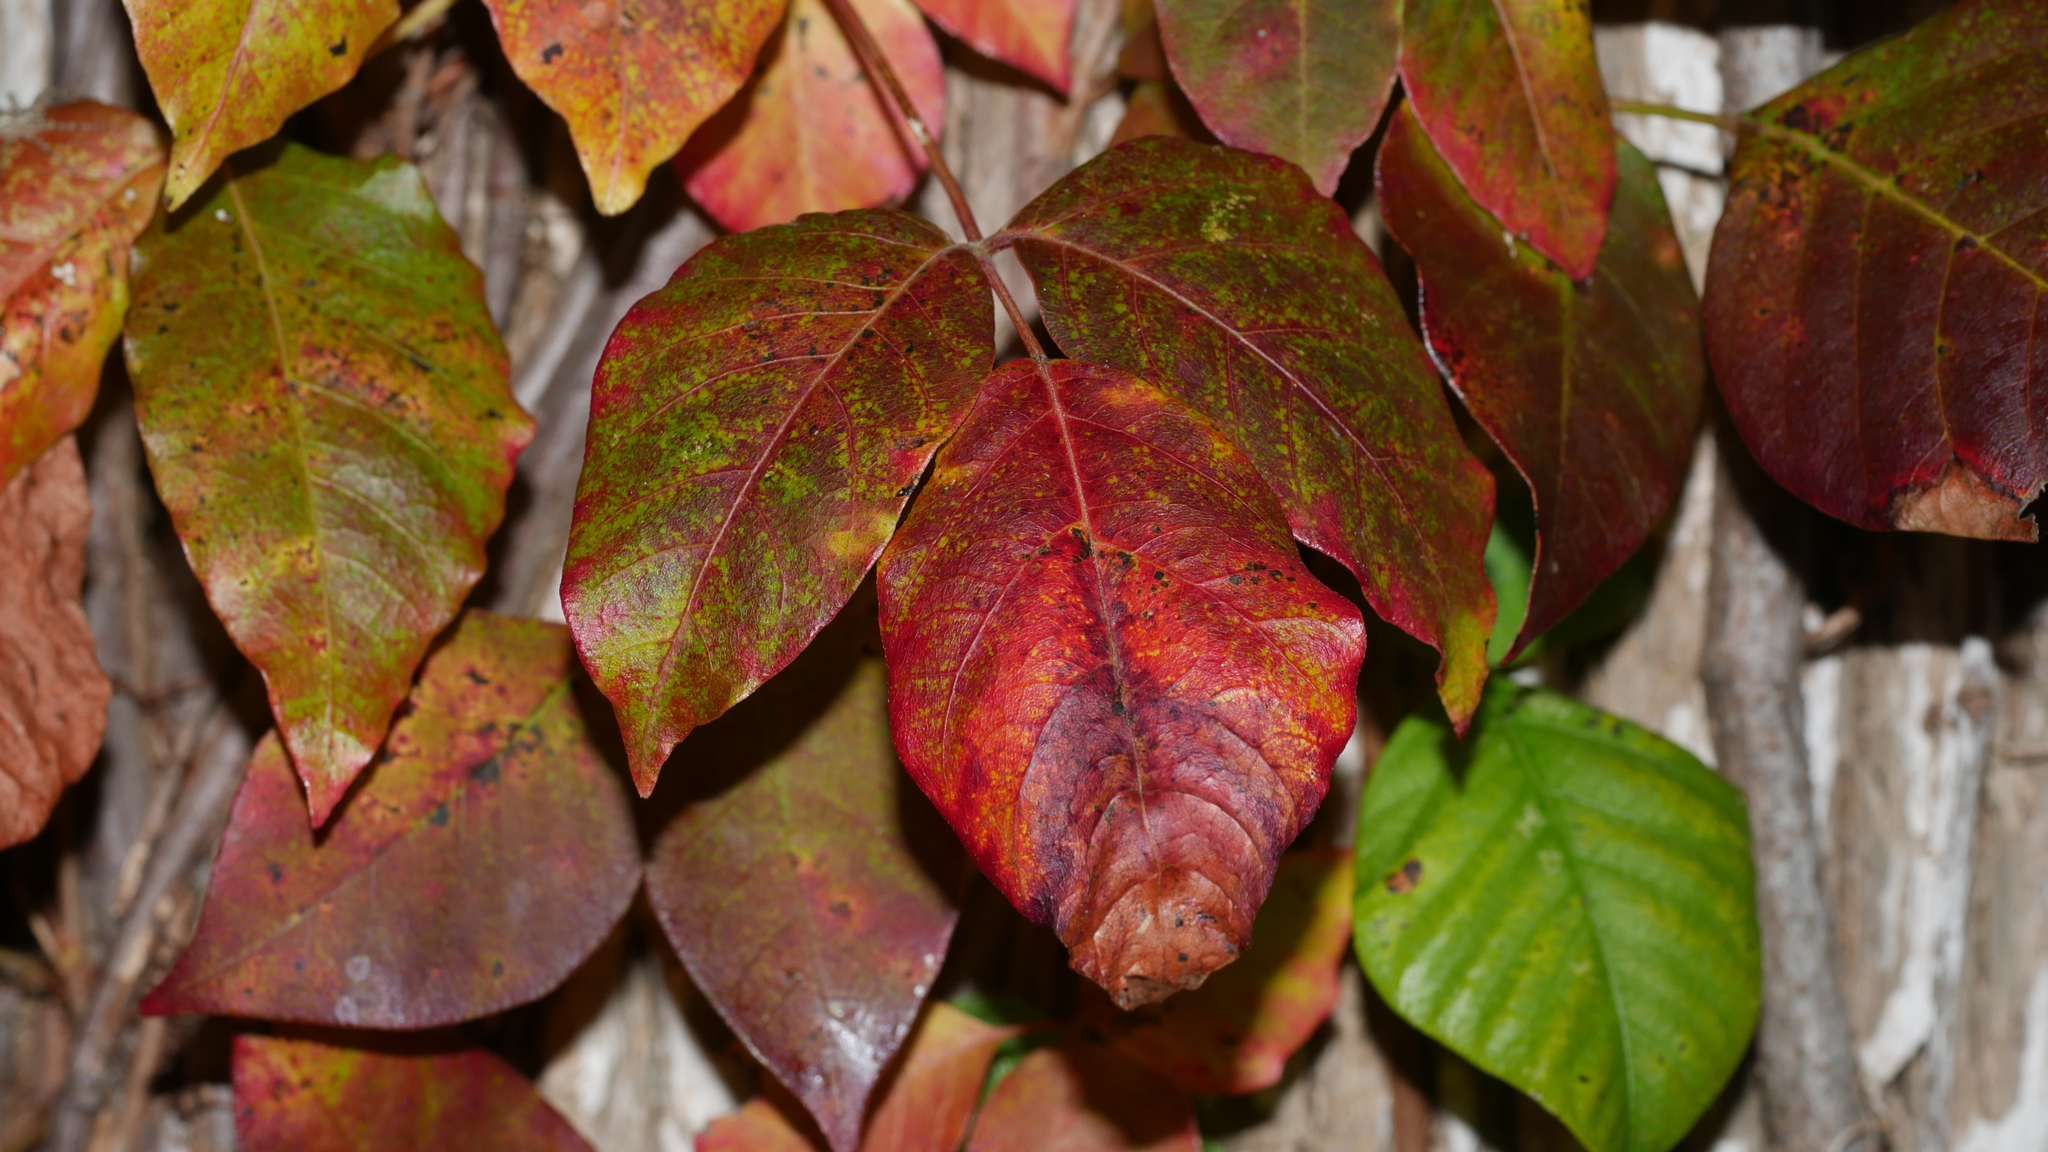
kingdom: Plantae
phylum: Tracheophyta
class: Magnoliopsida
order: Sapindales
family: Anacardiaceae
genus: Toxicodendron
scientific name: Toxicodendron radicans
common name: Poison ivy
